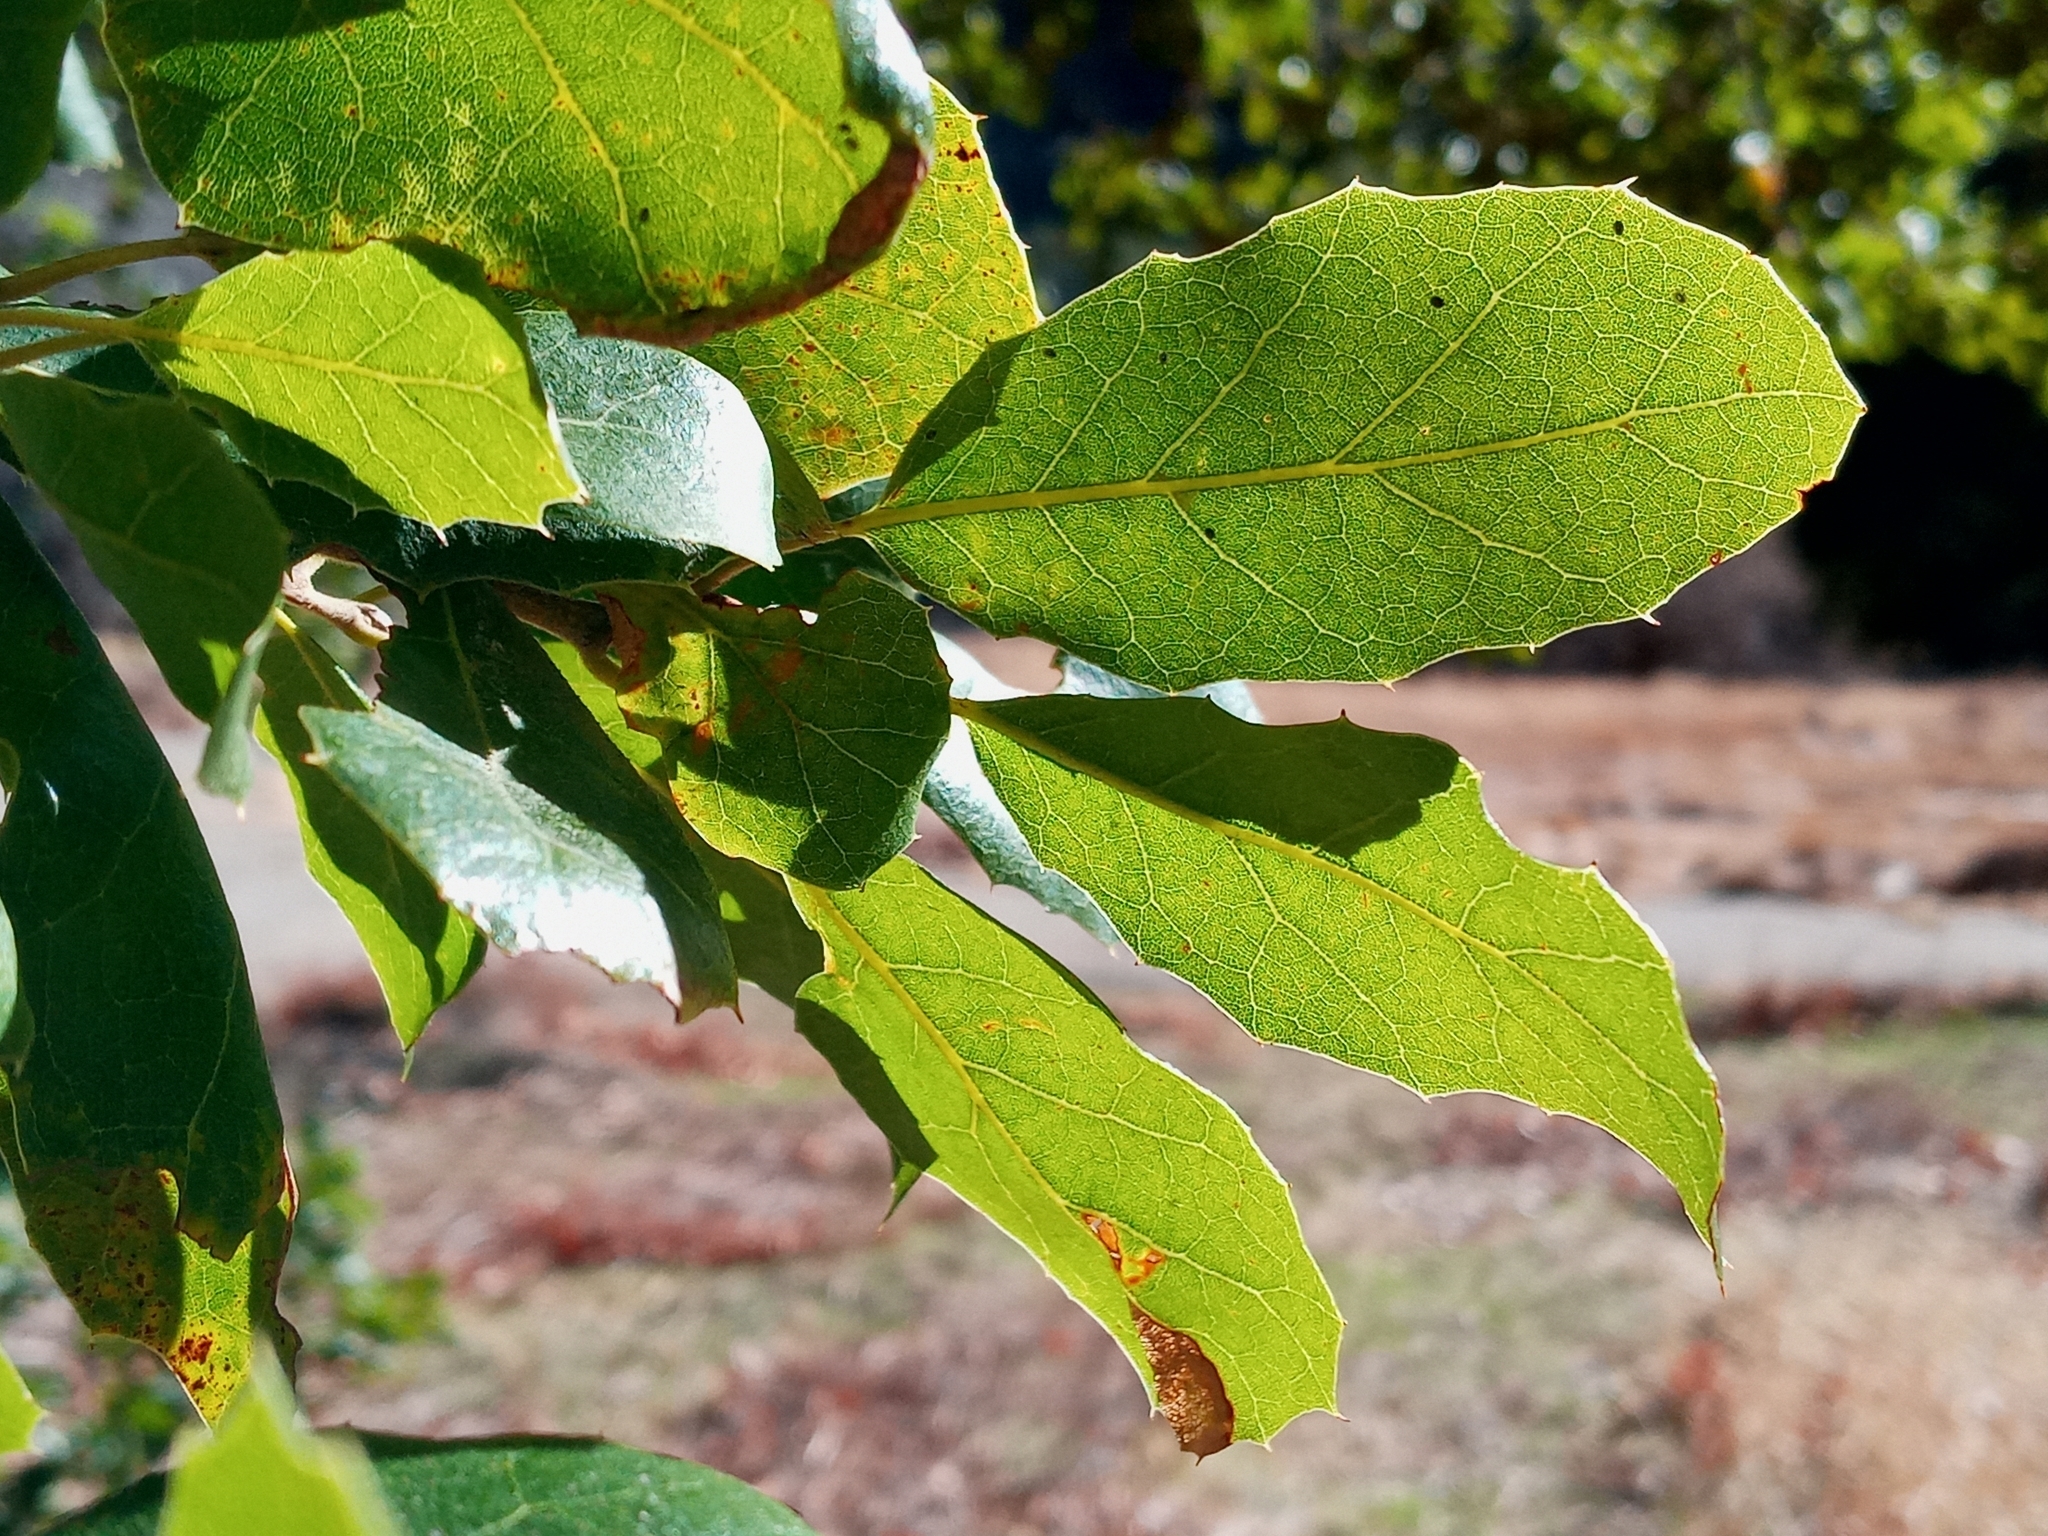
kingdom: Plantae
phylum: Tracheophyta
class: Magnoliopsida
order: Fagales
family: Fagaceae
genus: Quercus
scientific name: Quercus agrifolia
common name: California live oak
